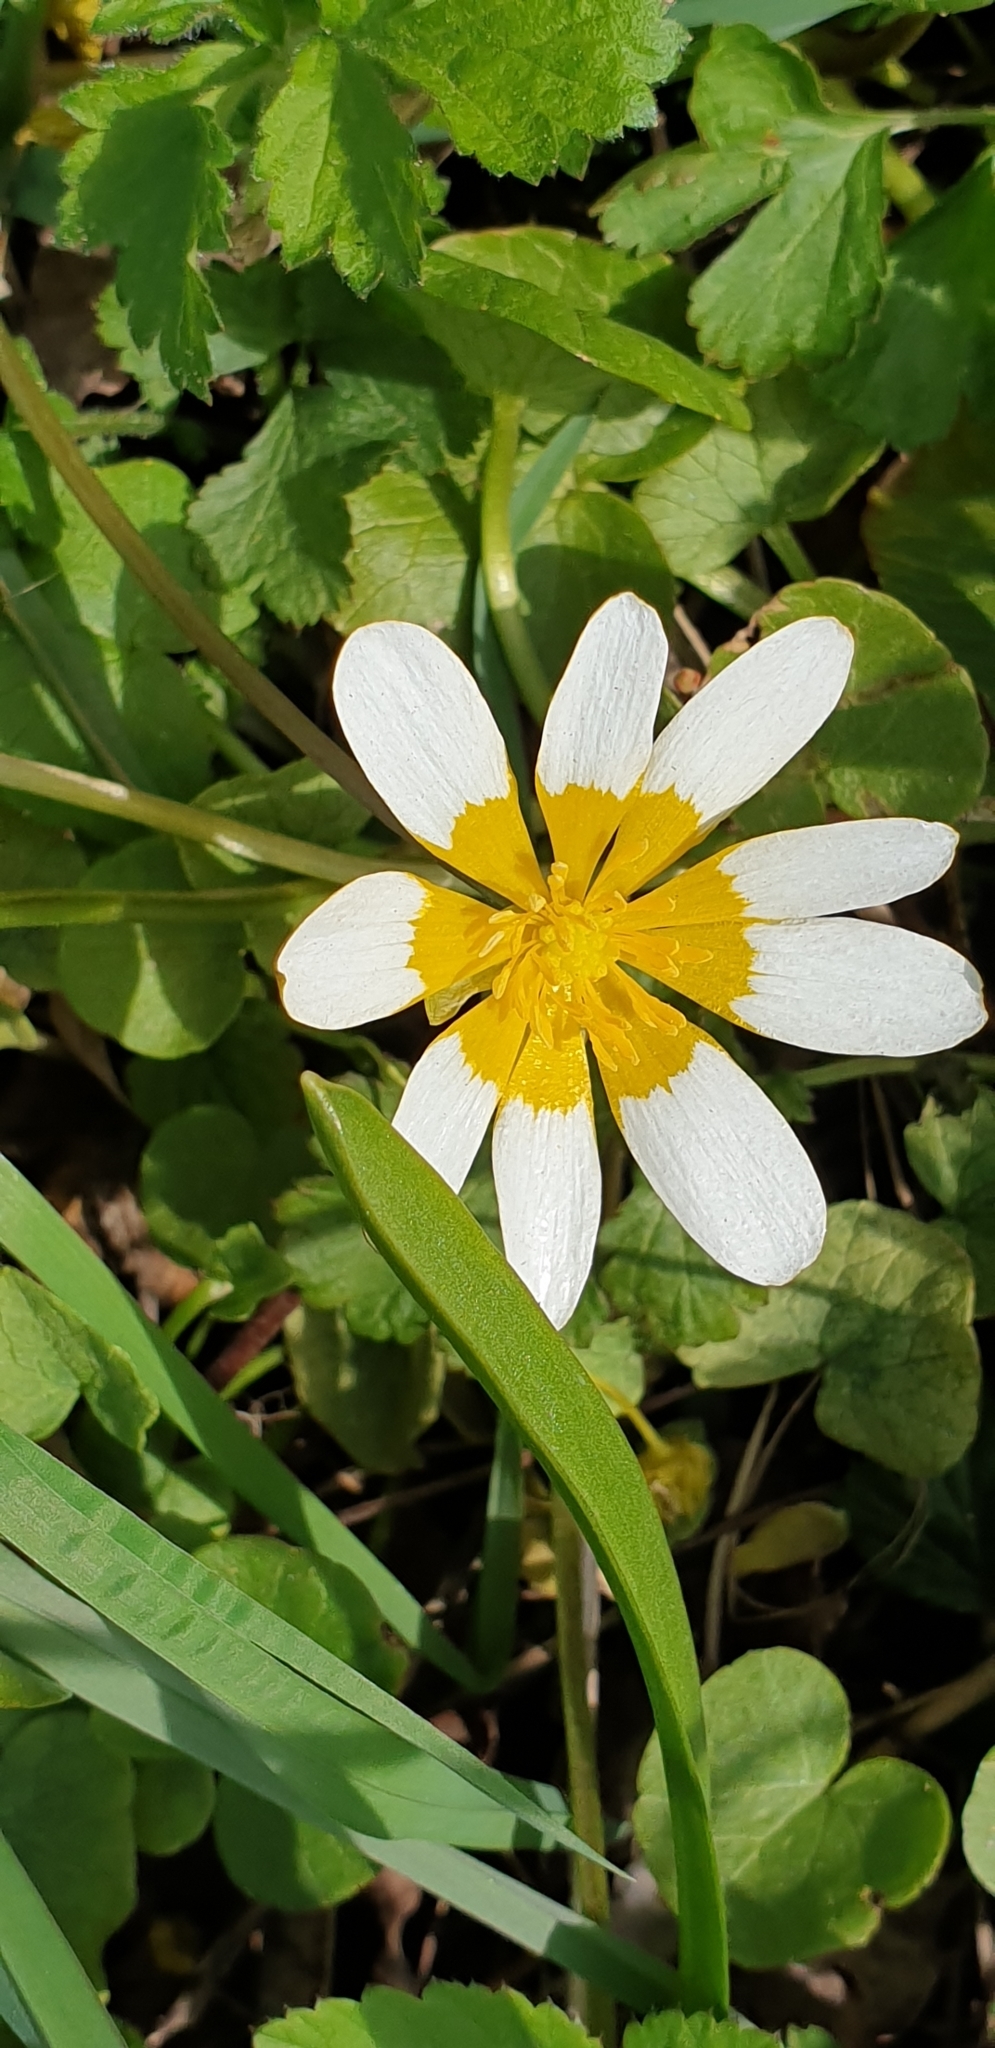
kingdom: Plantae
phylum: Tracheophyta
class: Magnoliopsida
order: Ranunculales
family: Ranunculaceae
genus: Ficaria
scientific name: Ficaria verna
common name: Lesser celandine
